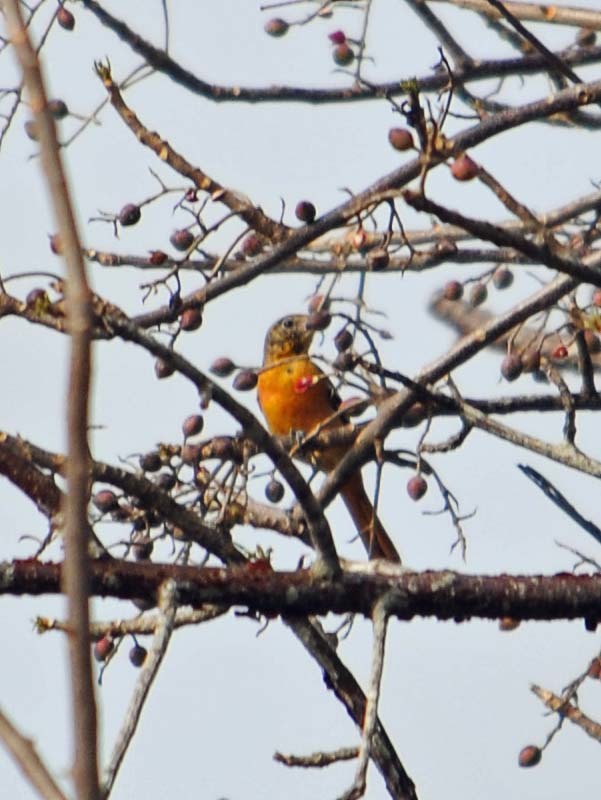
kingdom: Animalia
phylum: Chordata
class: Aves
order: Passeriformes
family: Icteridae
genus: Icterus
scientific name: Icterus galbula
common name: Baltimore oriole
